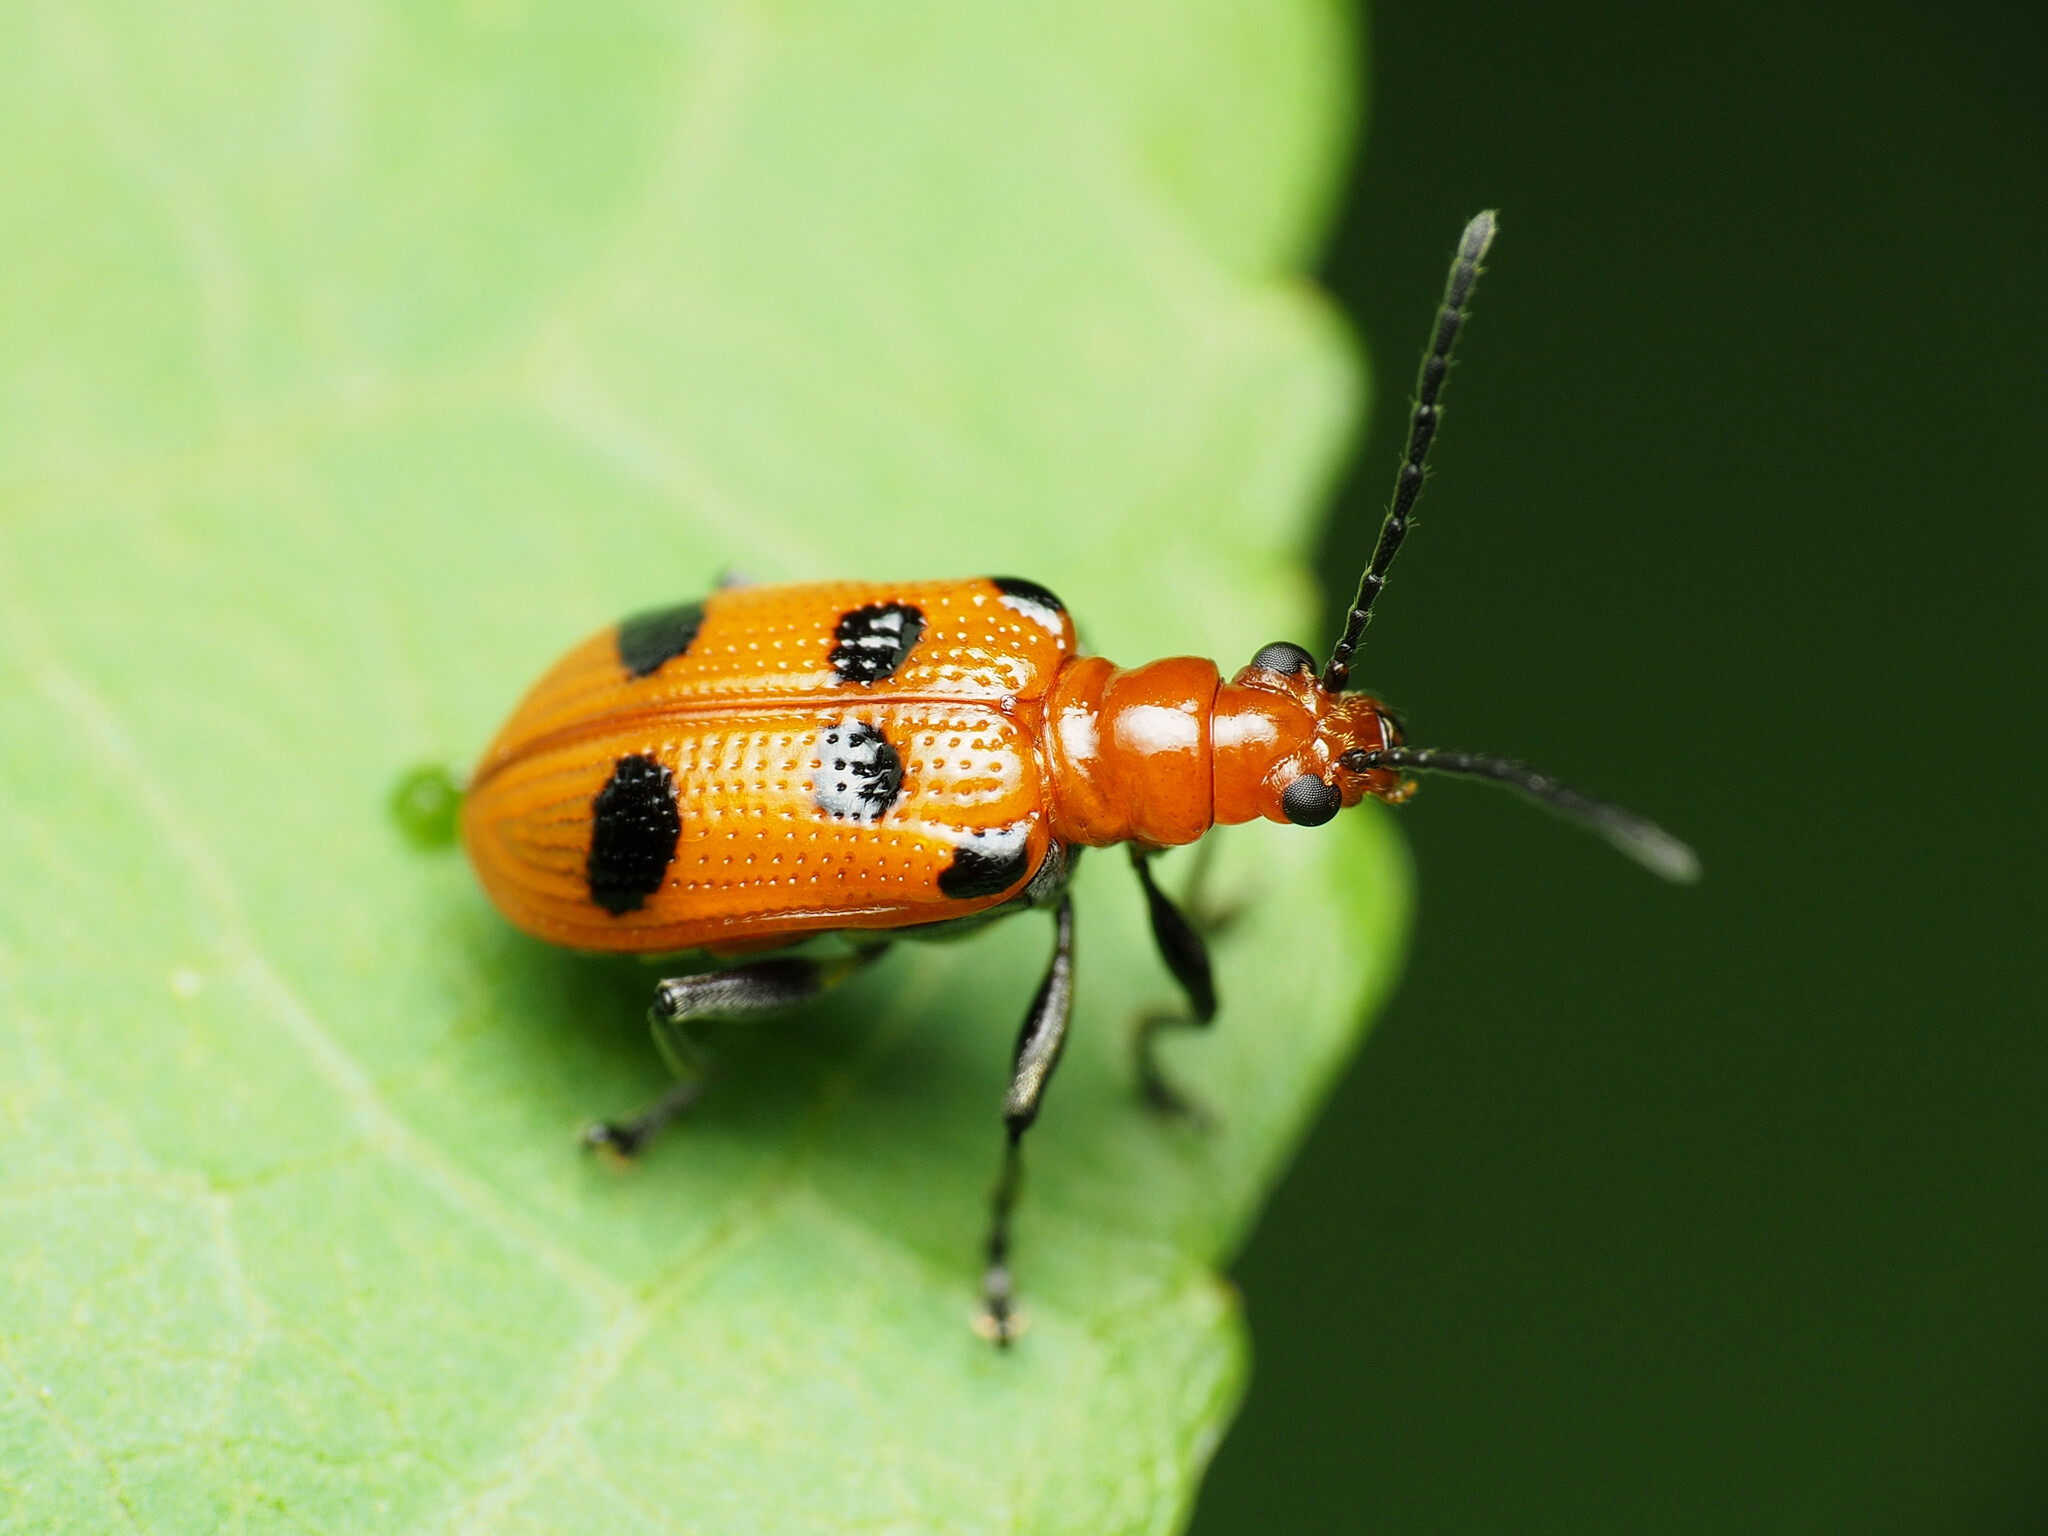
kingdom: Animalia
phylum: Arthropoda
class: Insecta
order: Coleoptera
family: Chrysomelidae
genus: Neolema
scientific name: Neolema sexpunctata
